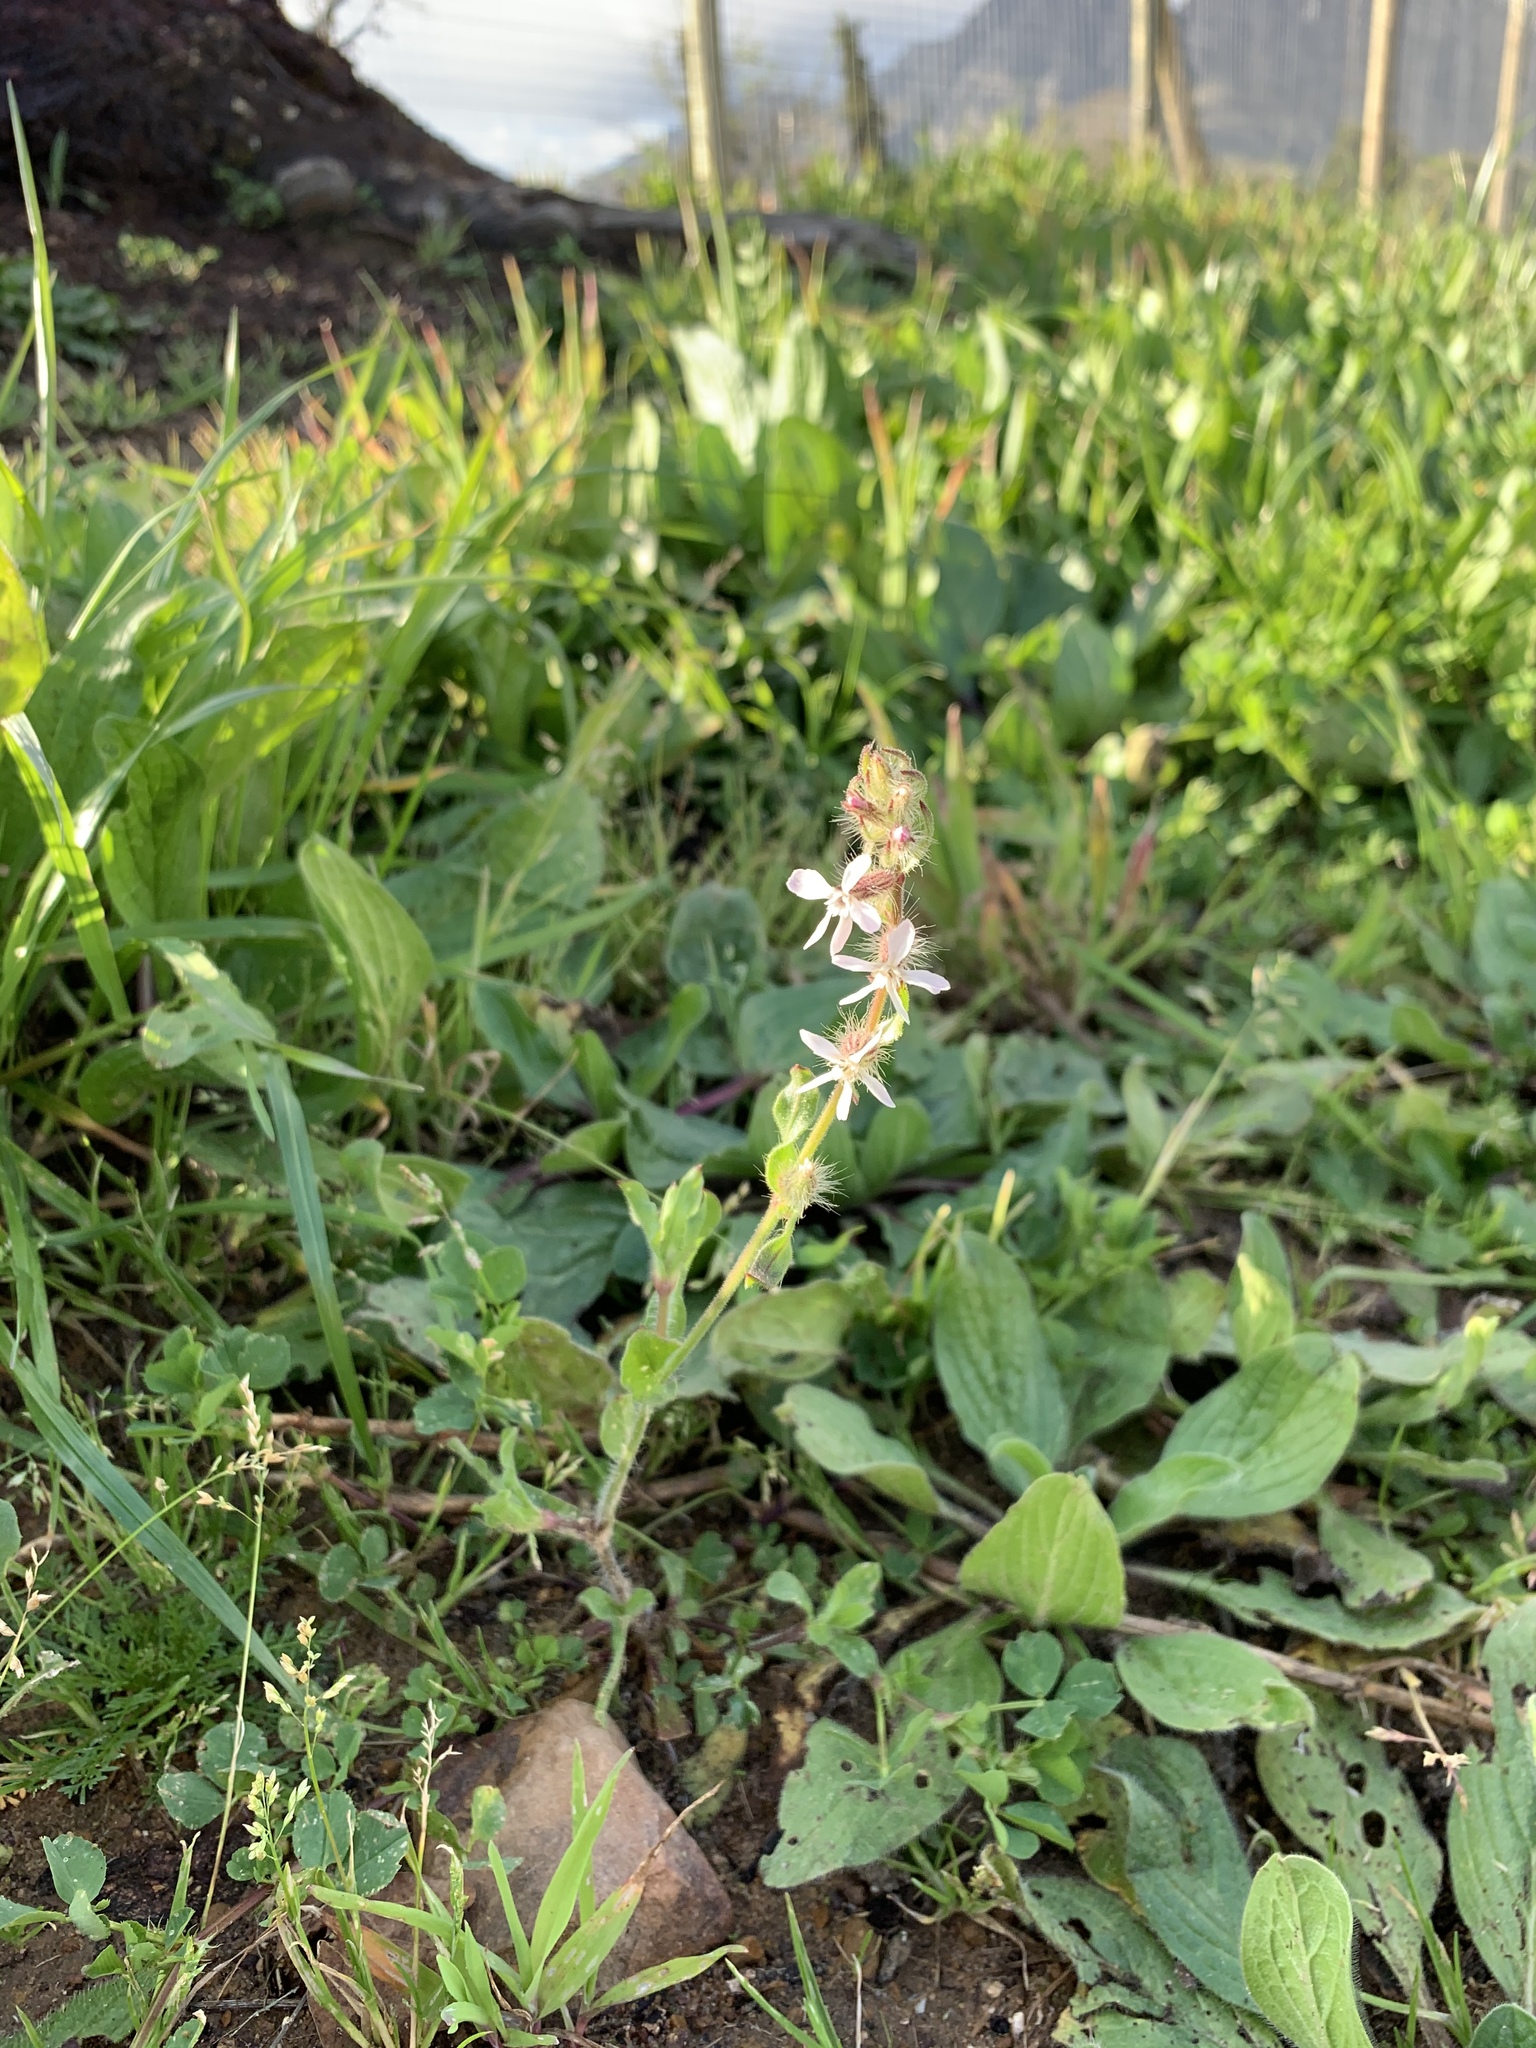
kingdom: Plantae
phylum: Tracheophyta
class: Magnoliopsida
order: Caryophyllales
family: Caryophyllaceae
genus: Silene
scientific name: Silene gallica
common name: Small-flowered catchfly
